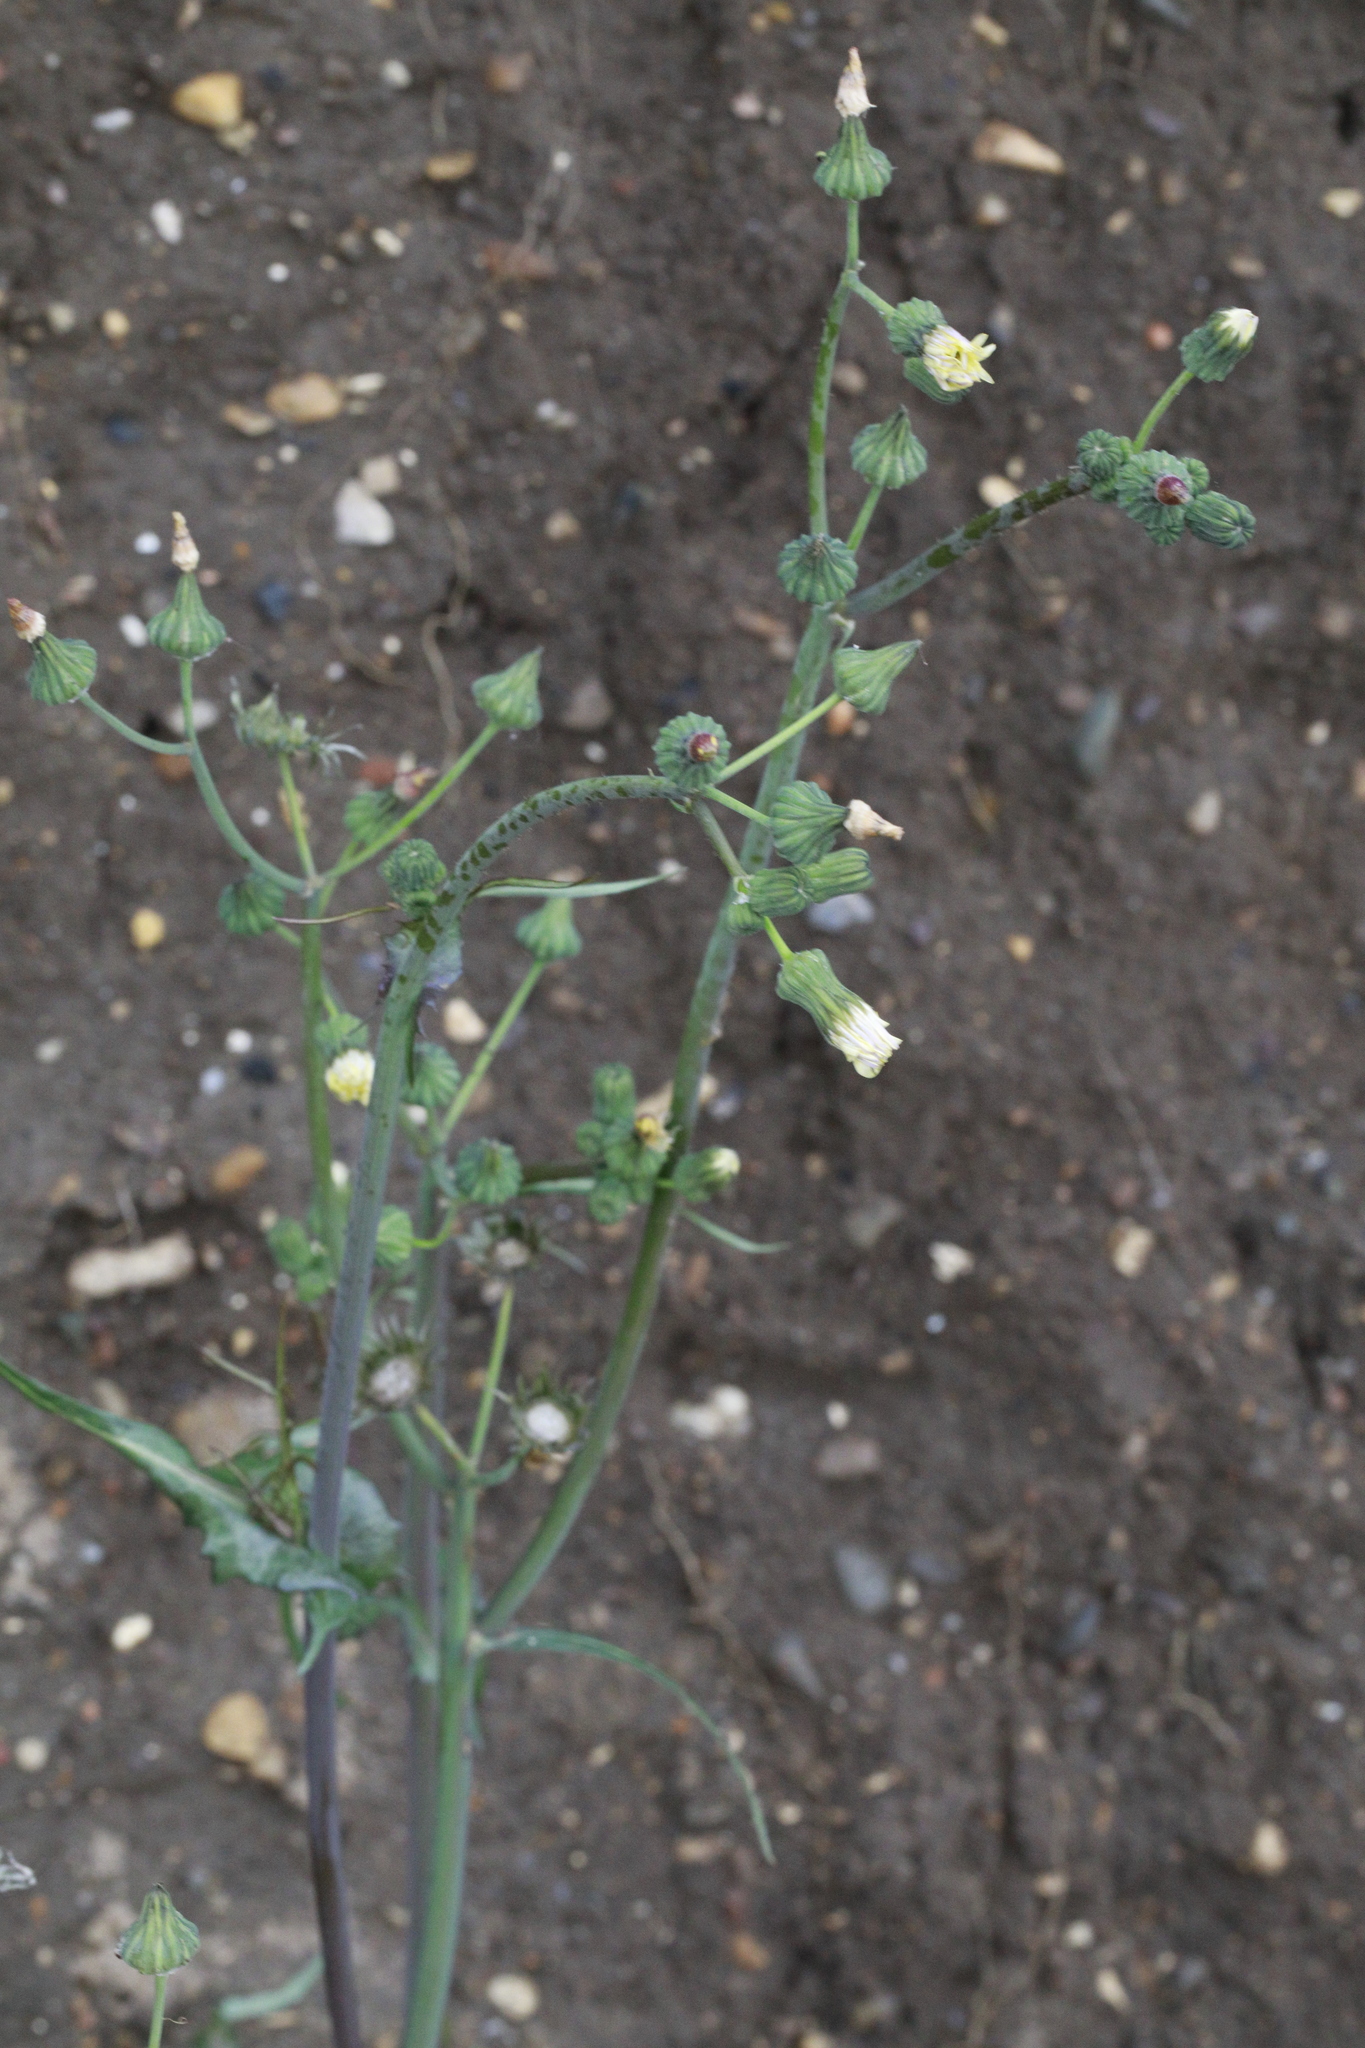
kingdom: Plantae
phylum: Tracheophyta
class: Magnoliopsida
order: Asterales
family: Asteraceae
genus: Sonchus
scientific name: Sonchus oleraceus
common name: Common sowthistle
